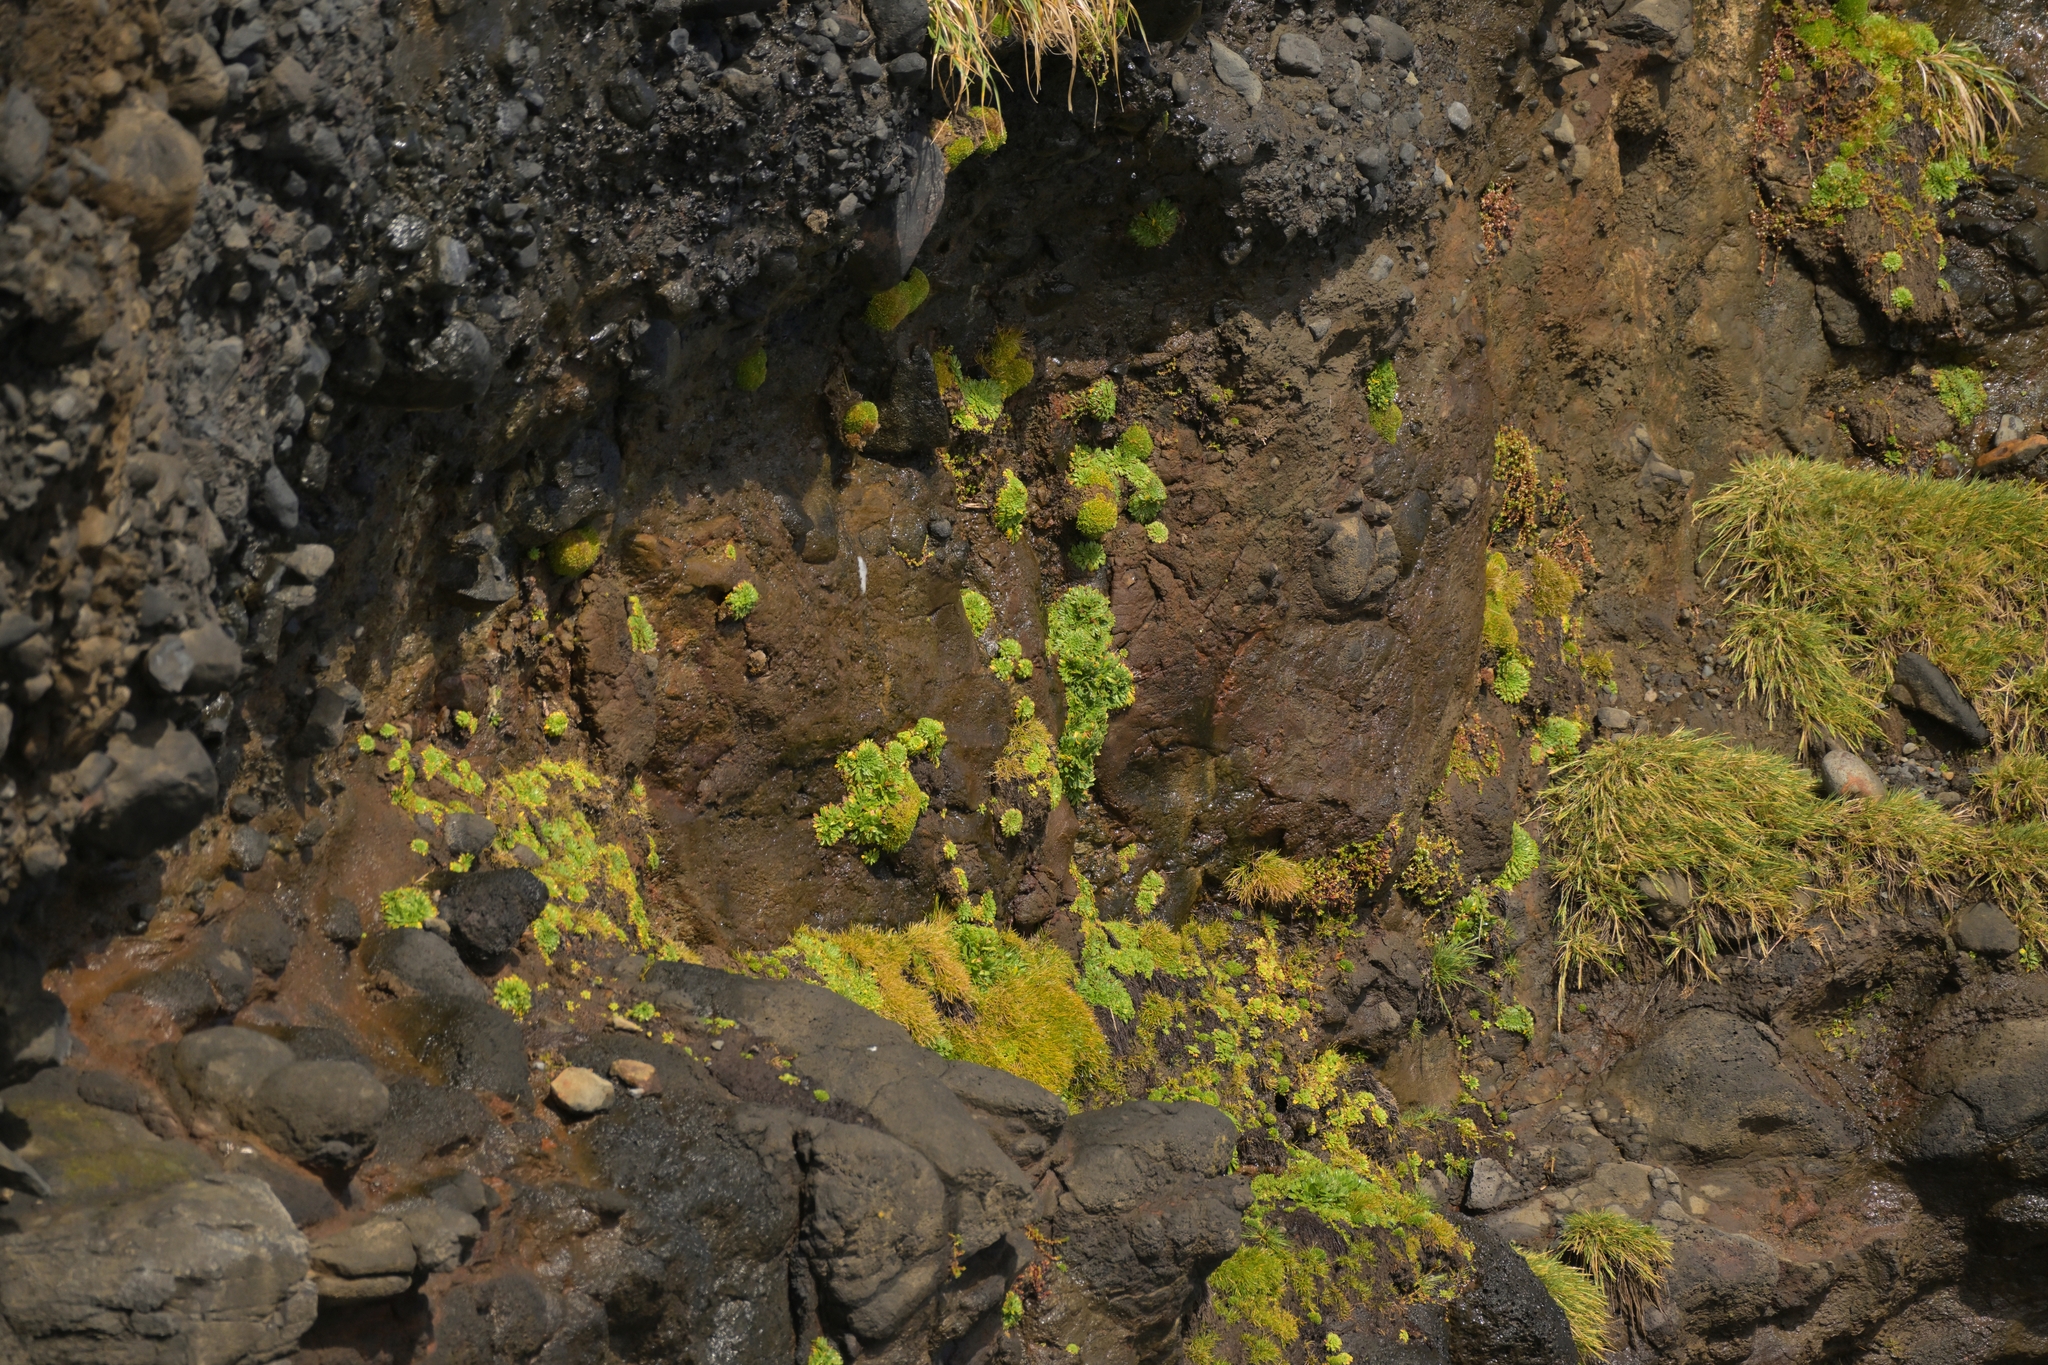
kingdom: Plantae
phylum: Tracheophyta
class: Magnoliopsida
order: Lamiales
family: Plantaginaceae
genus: Plantago
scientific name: Plantago brownii
